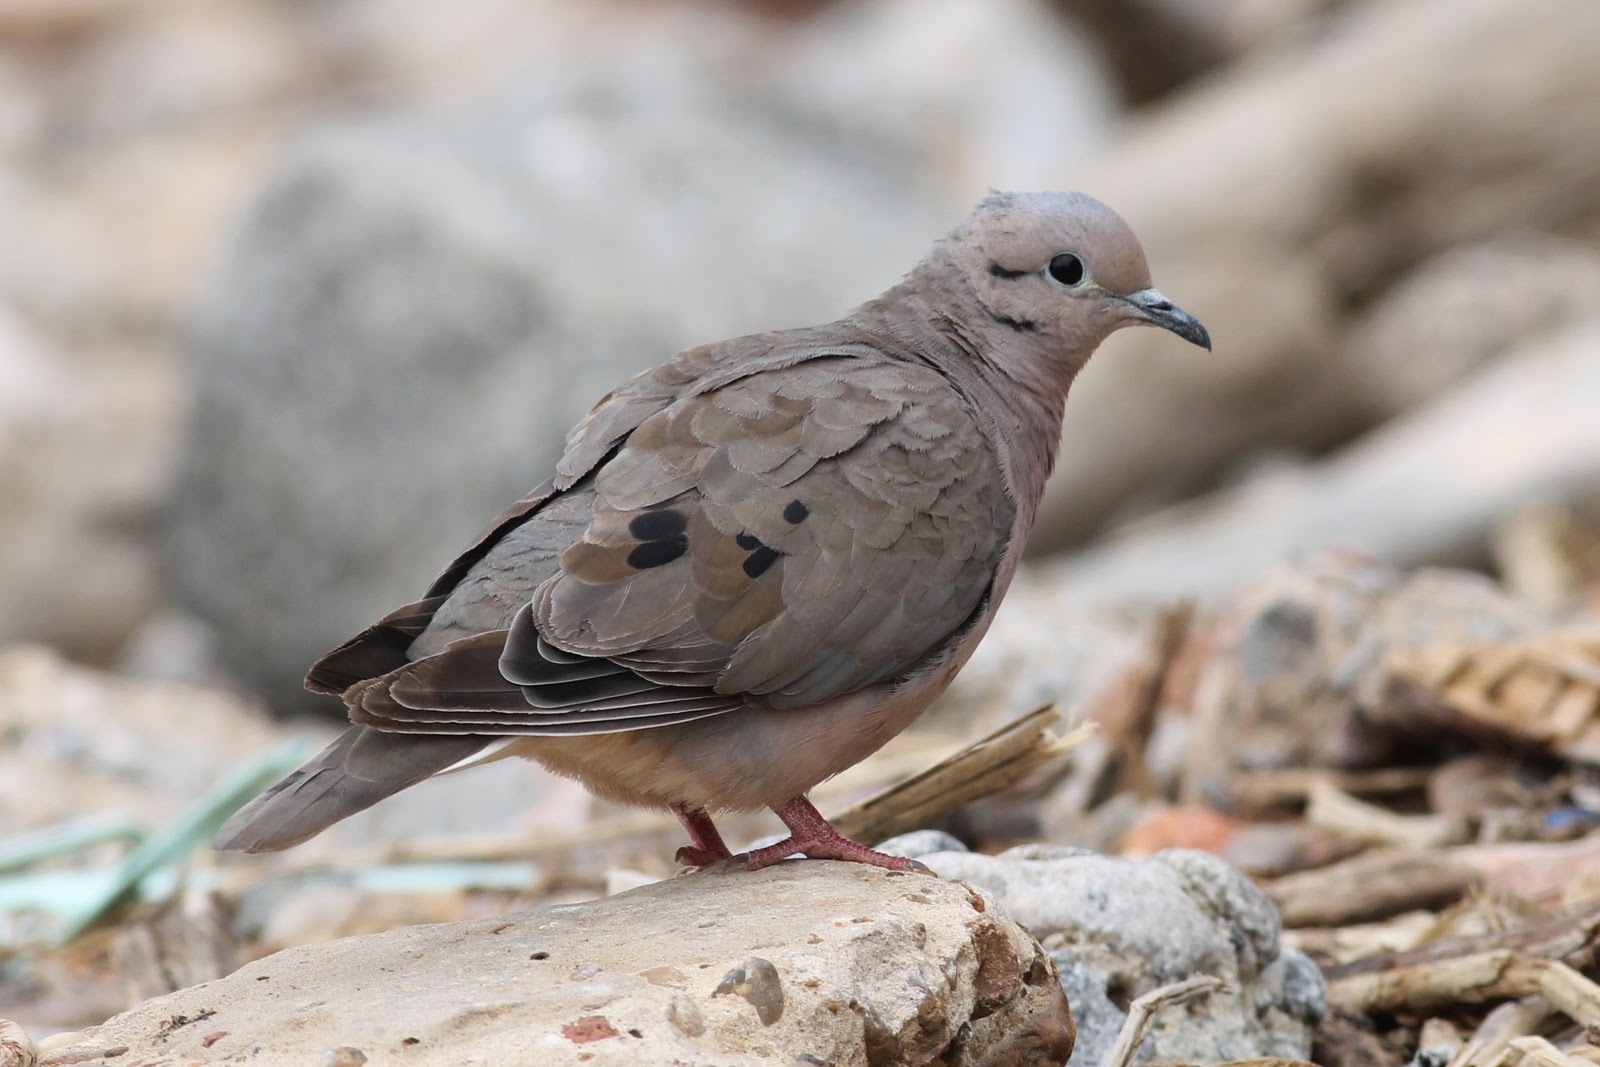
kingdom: Animalia
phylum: Chordata
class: Aves
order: Columbiformes
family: Columbidae
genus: Zenaida
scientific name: Zenaida auriculata
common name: Eared dove
